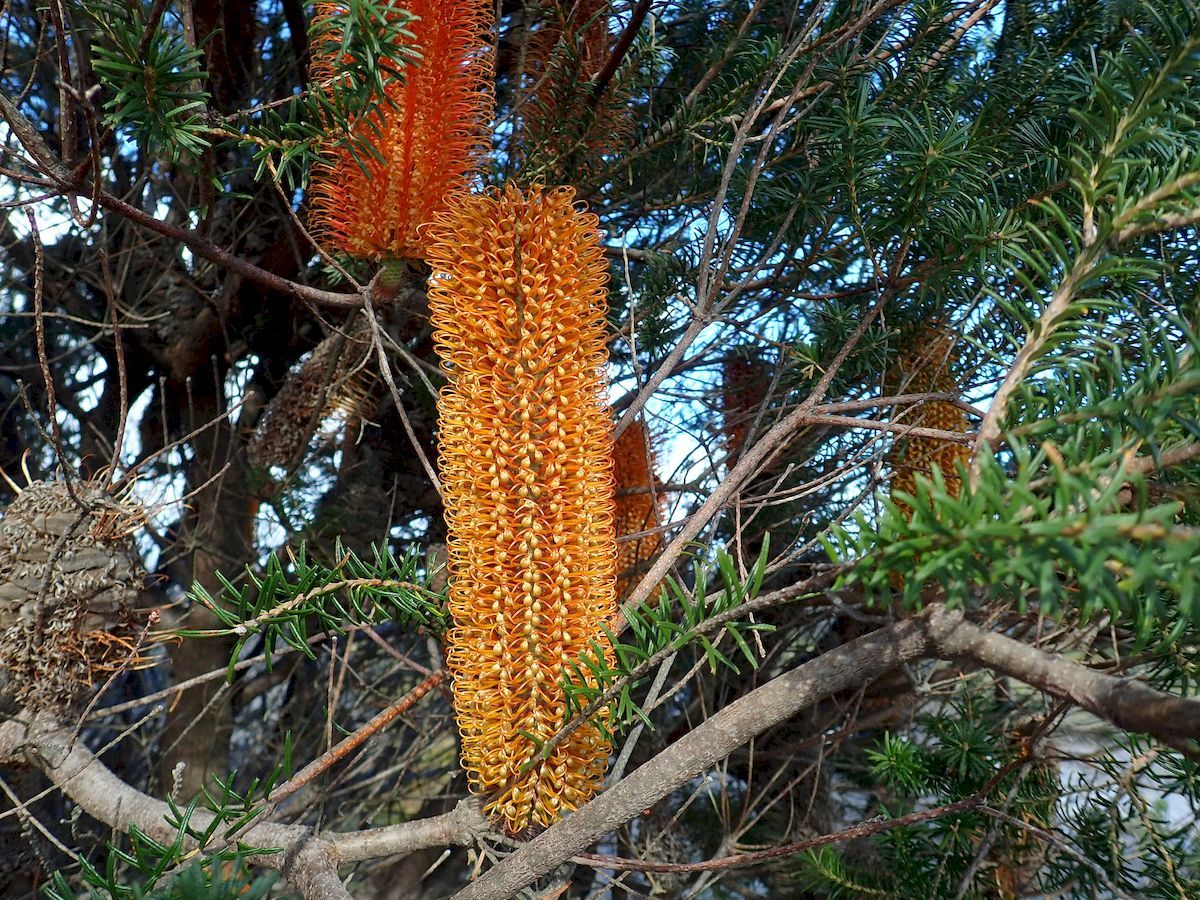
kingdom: Plantae
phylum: Tracheophyta
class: Magnoliopsida
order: Proteales
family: Proteaceae
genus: Banksia
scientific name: Banksia ericifolia
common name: Heath-leaf banksia
